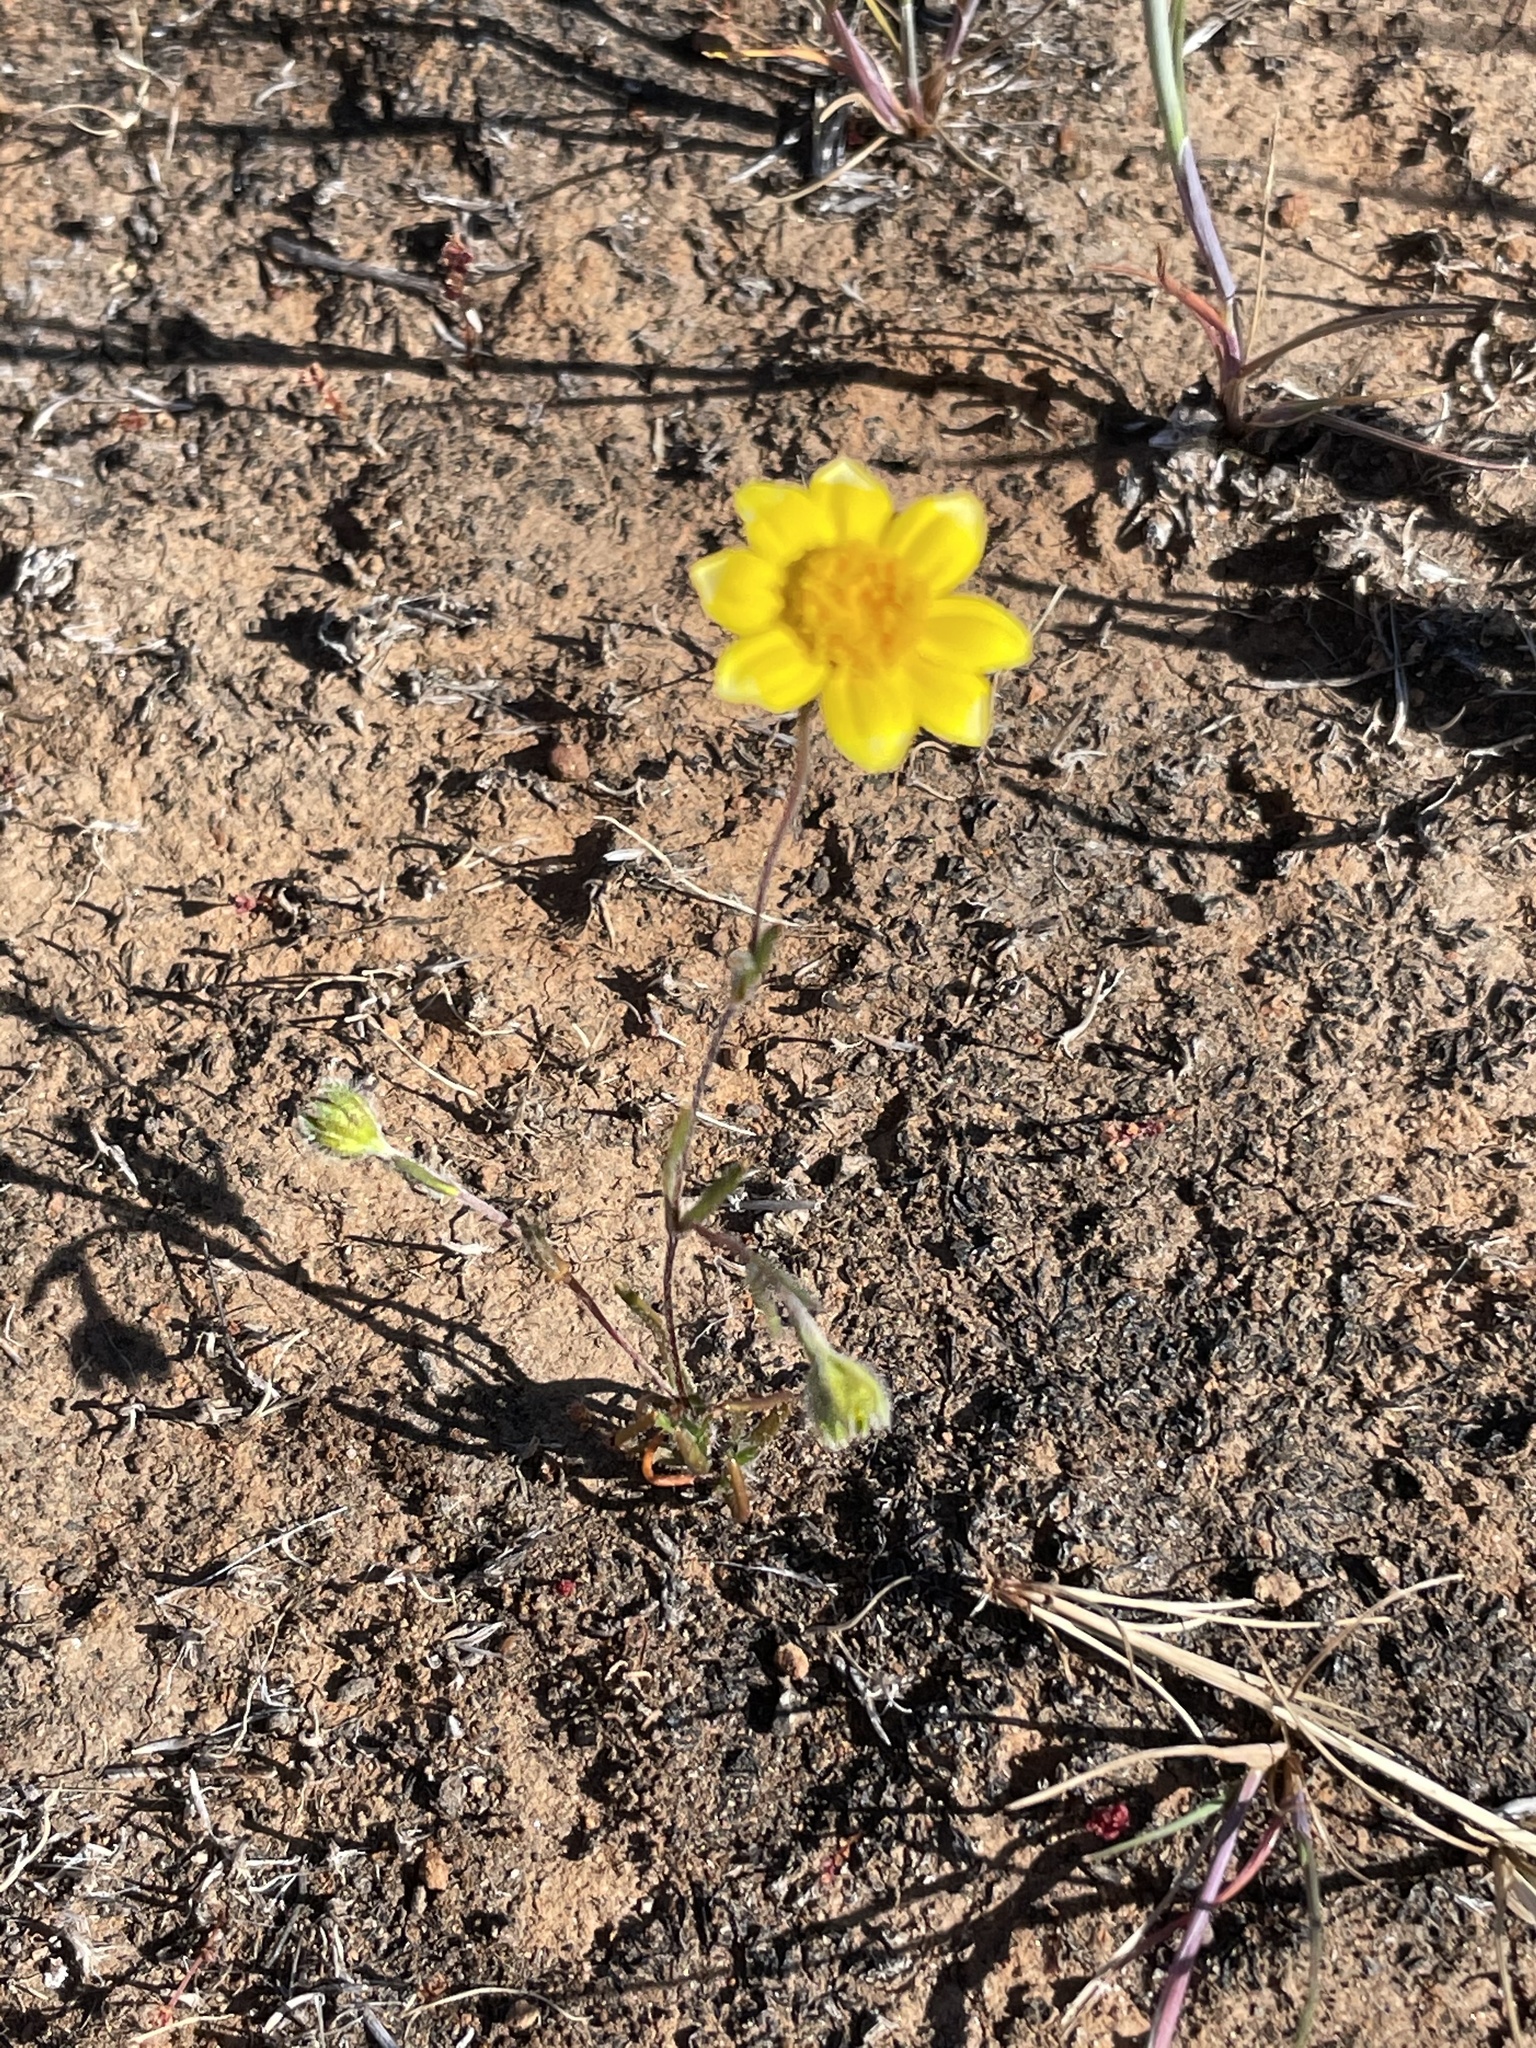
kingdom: Plantae
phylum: Tracheophyta
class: Magnoliopsida
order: Asterales
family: Asteraceae
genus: Lasthenia
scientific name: Lasthenia gracilis
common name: Common goldfields
